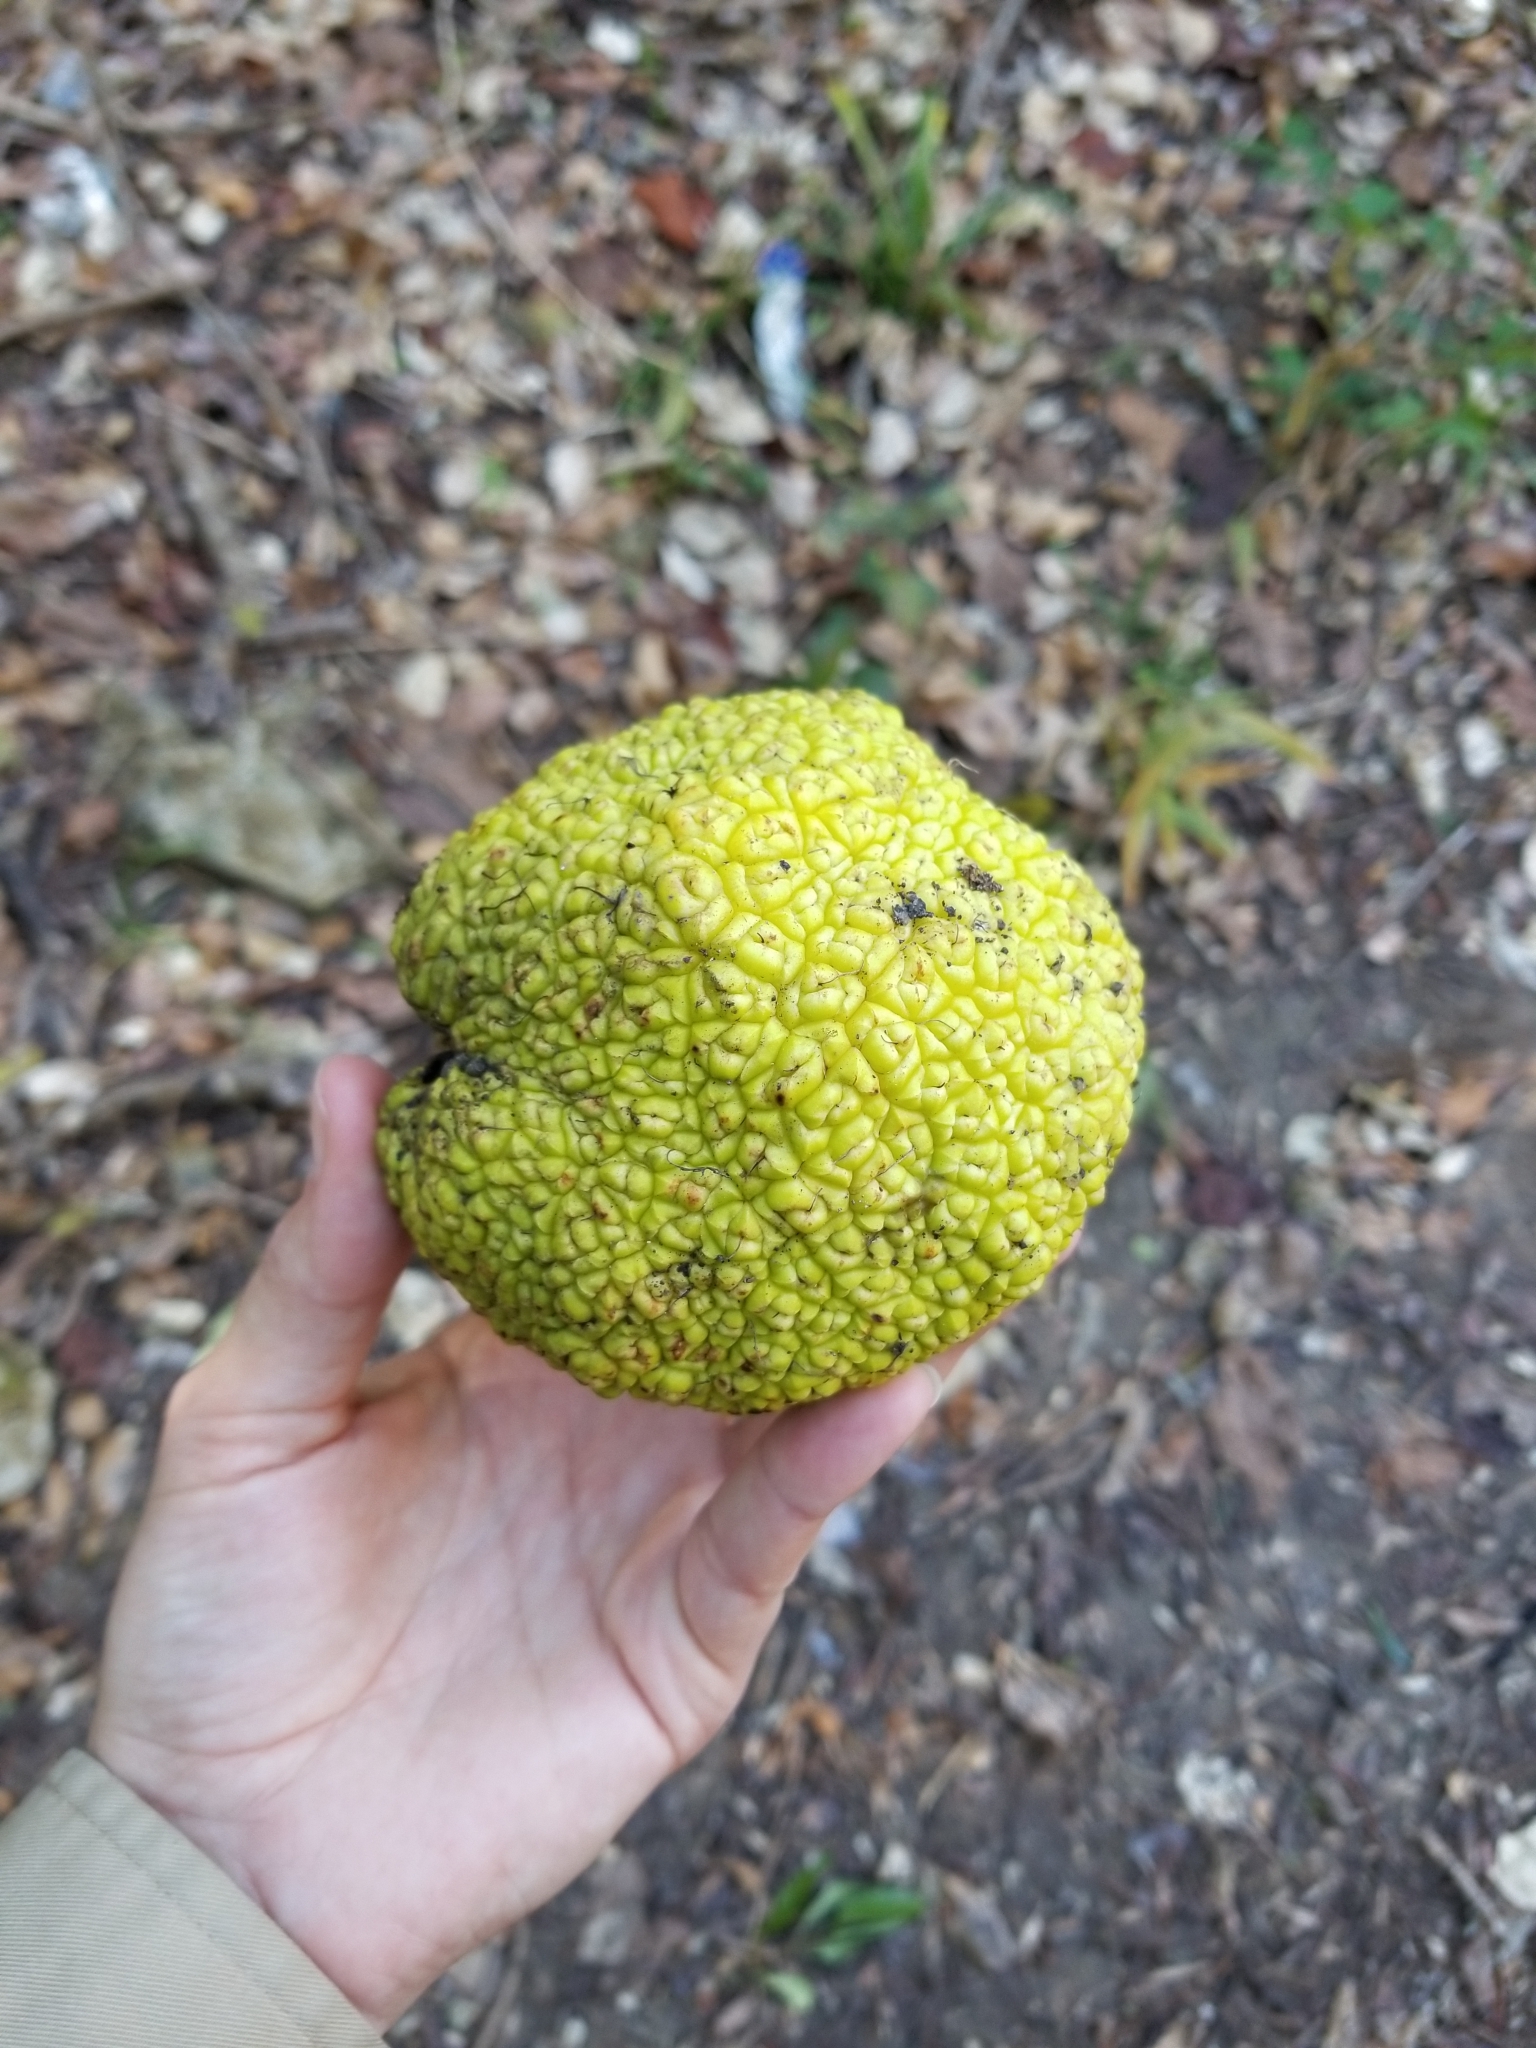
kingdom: Plantae
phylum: Tracheophyta
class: Magnoliopsida
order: Rosales
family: Moraceae
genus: Maclura
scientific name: Maclura pomifera
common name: Osage-orange
